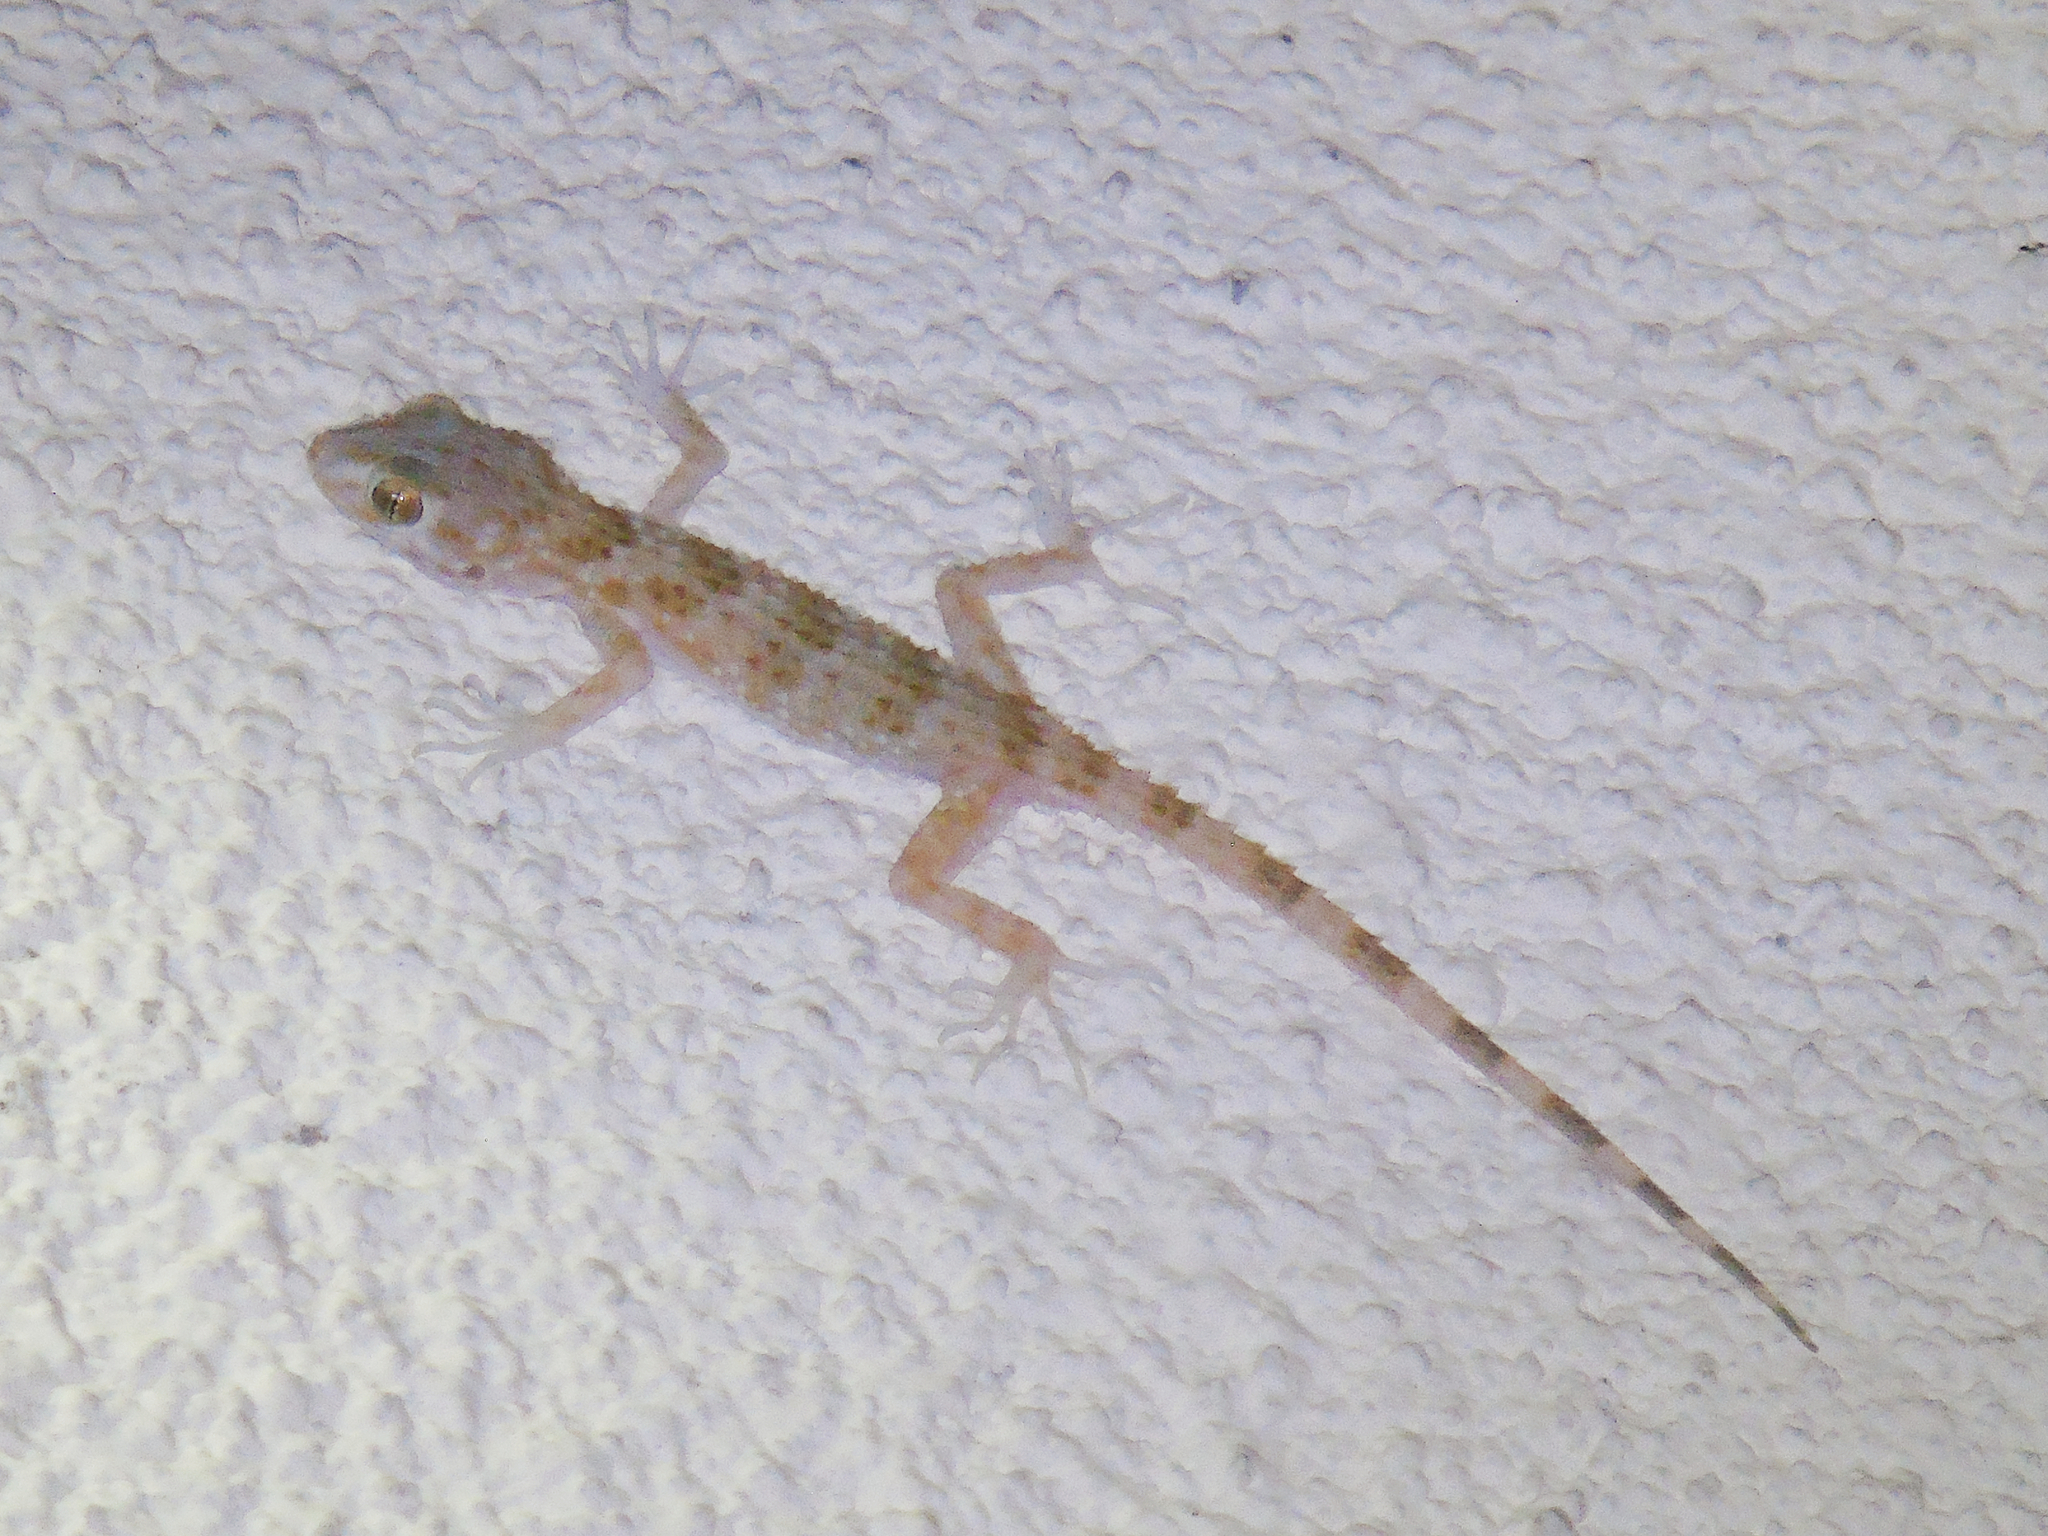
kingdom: Animalia
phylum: Chordata
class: Squamata
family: Gekkonidae
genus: Tenuidactylus
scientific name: Tenuidactylus caspius
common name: Caspian bent-toed gecko
